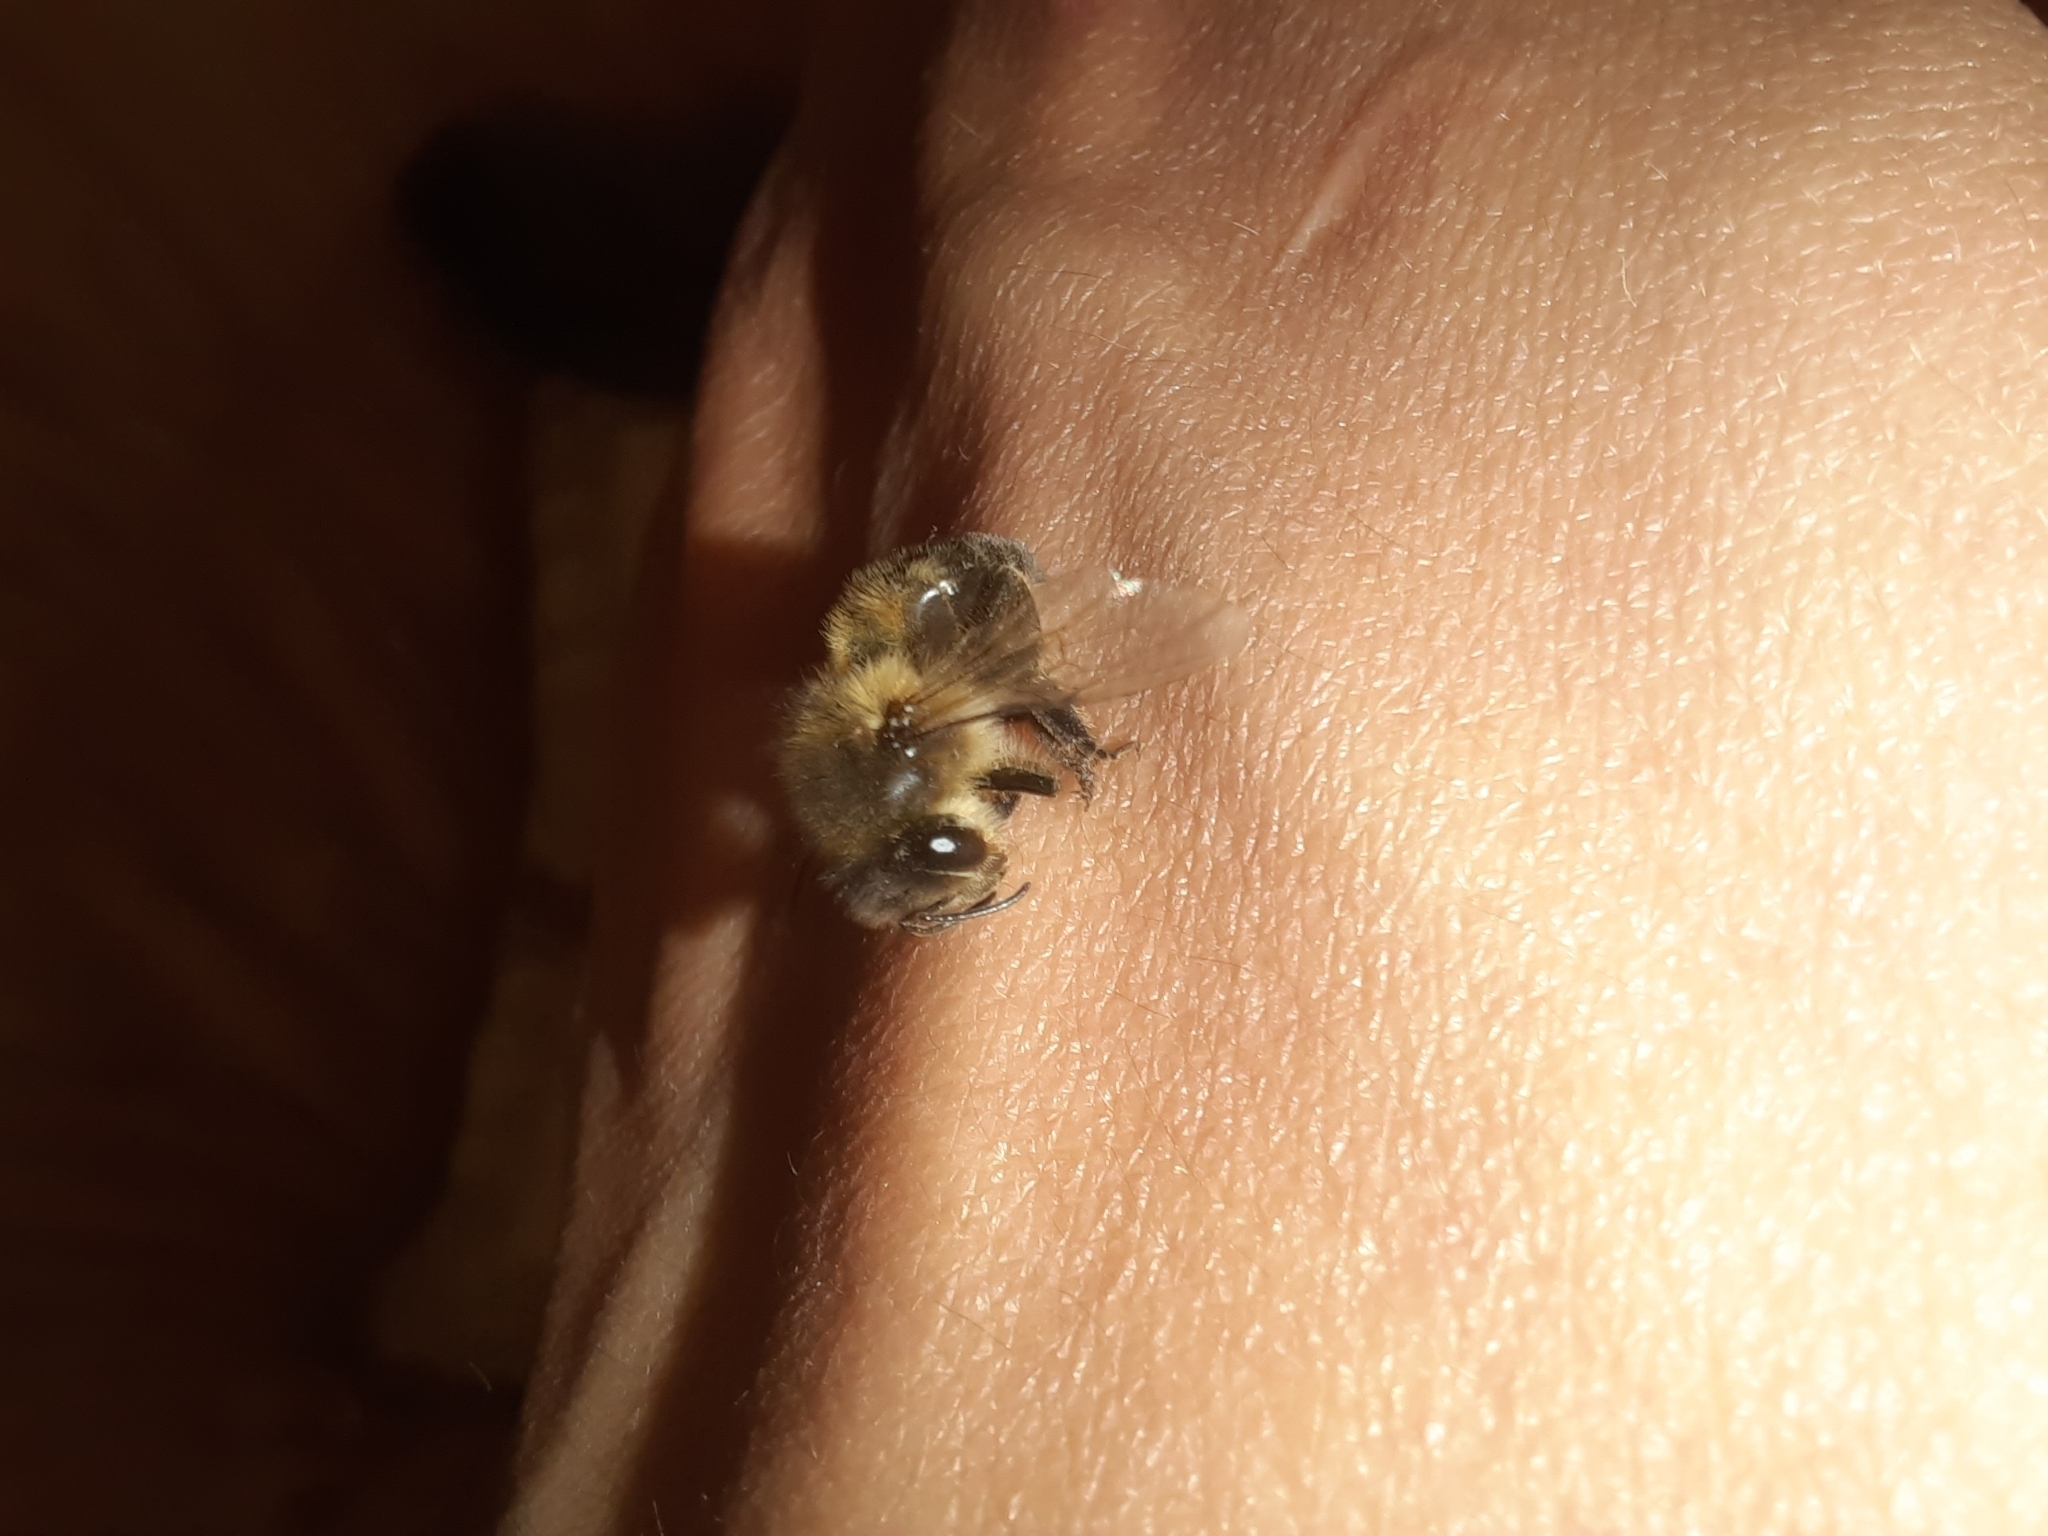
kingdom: Animalia
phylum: Arthropoda
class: Insecta
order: Hymenoptera
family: Apidae
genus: Apis
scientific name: Apis mellifera
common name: Honey bee
